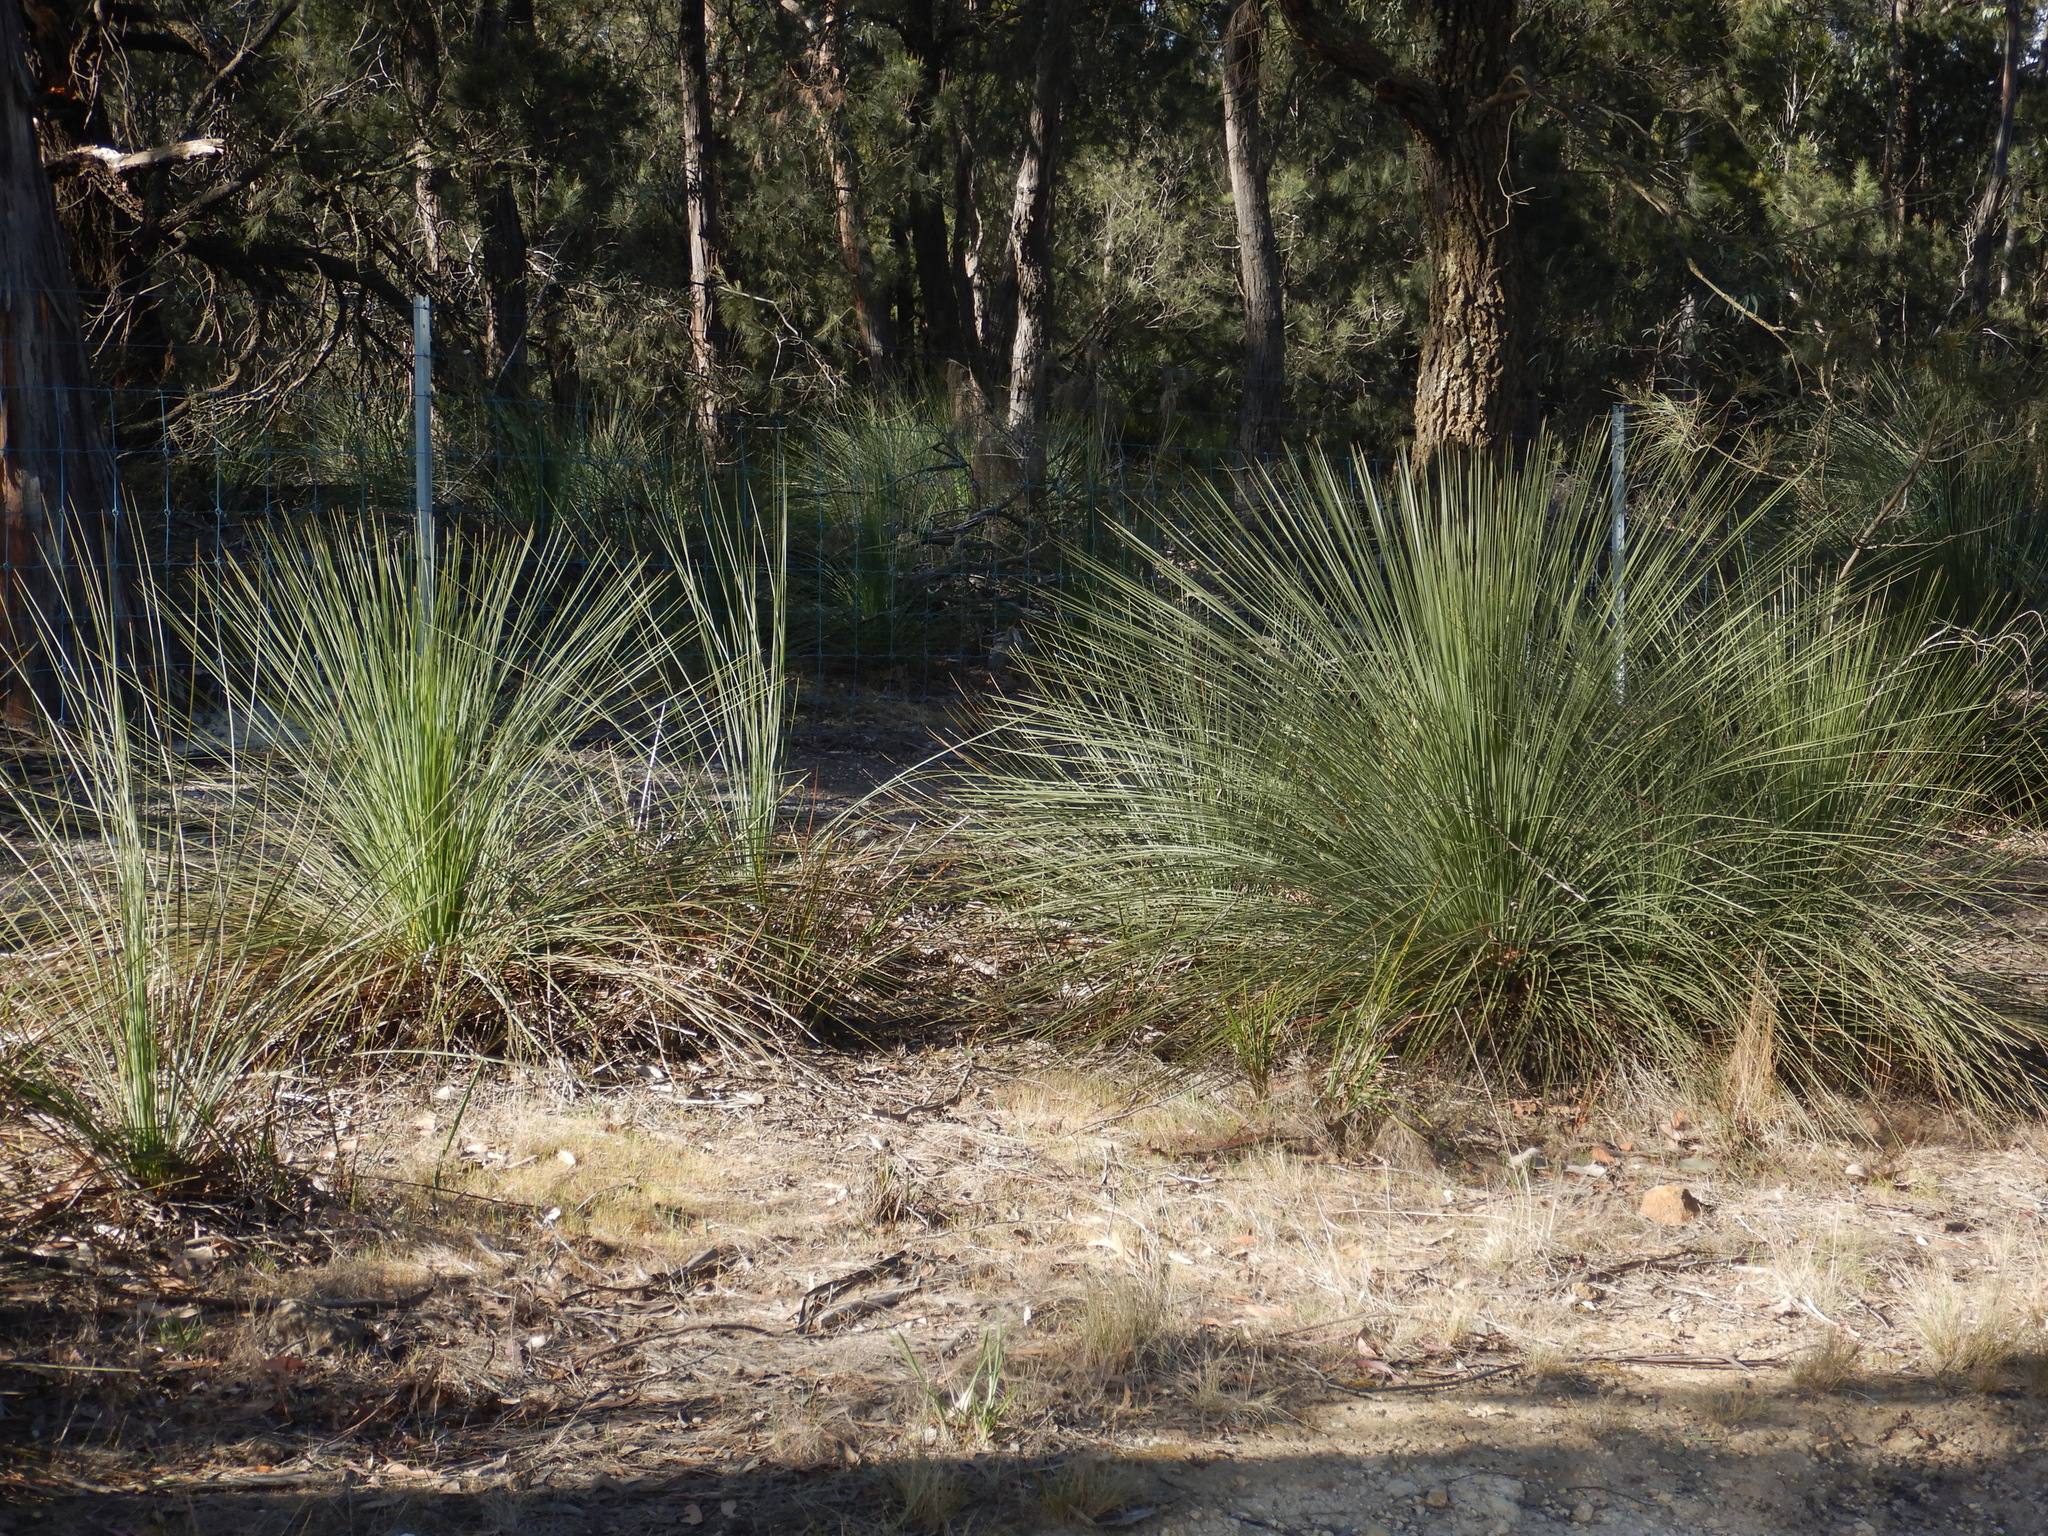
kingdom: Plantae
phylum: Tracheophyta
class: Liliopsida
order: Asparagales
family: Asphodelaceae
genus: Xanthorrhoea
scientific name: Xanthorrhoea australis
